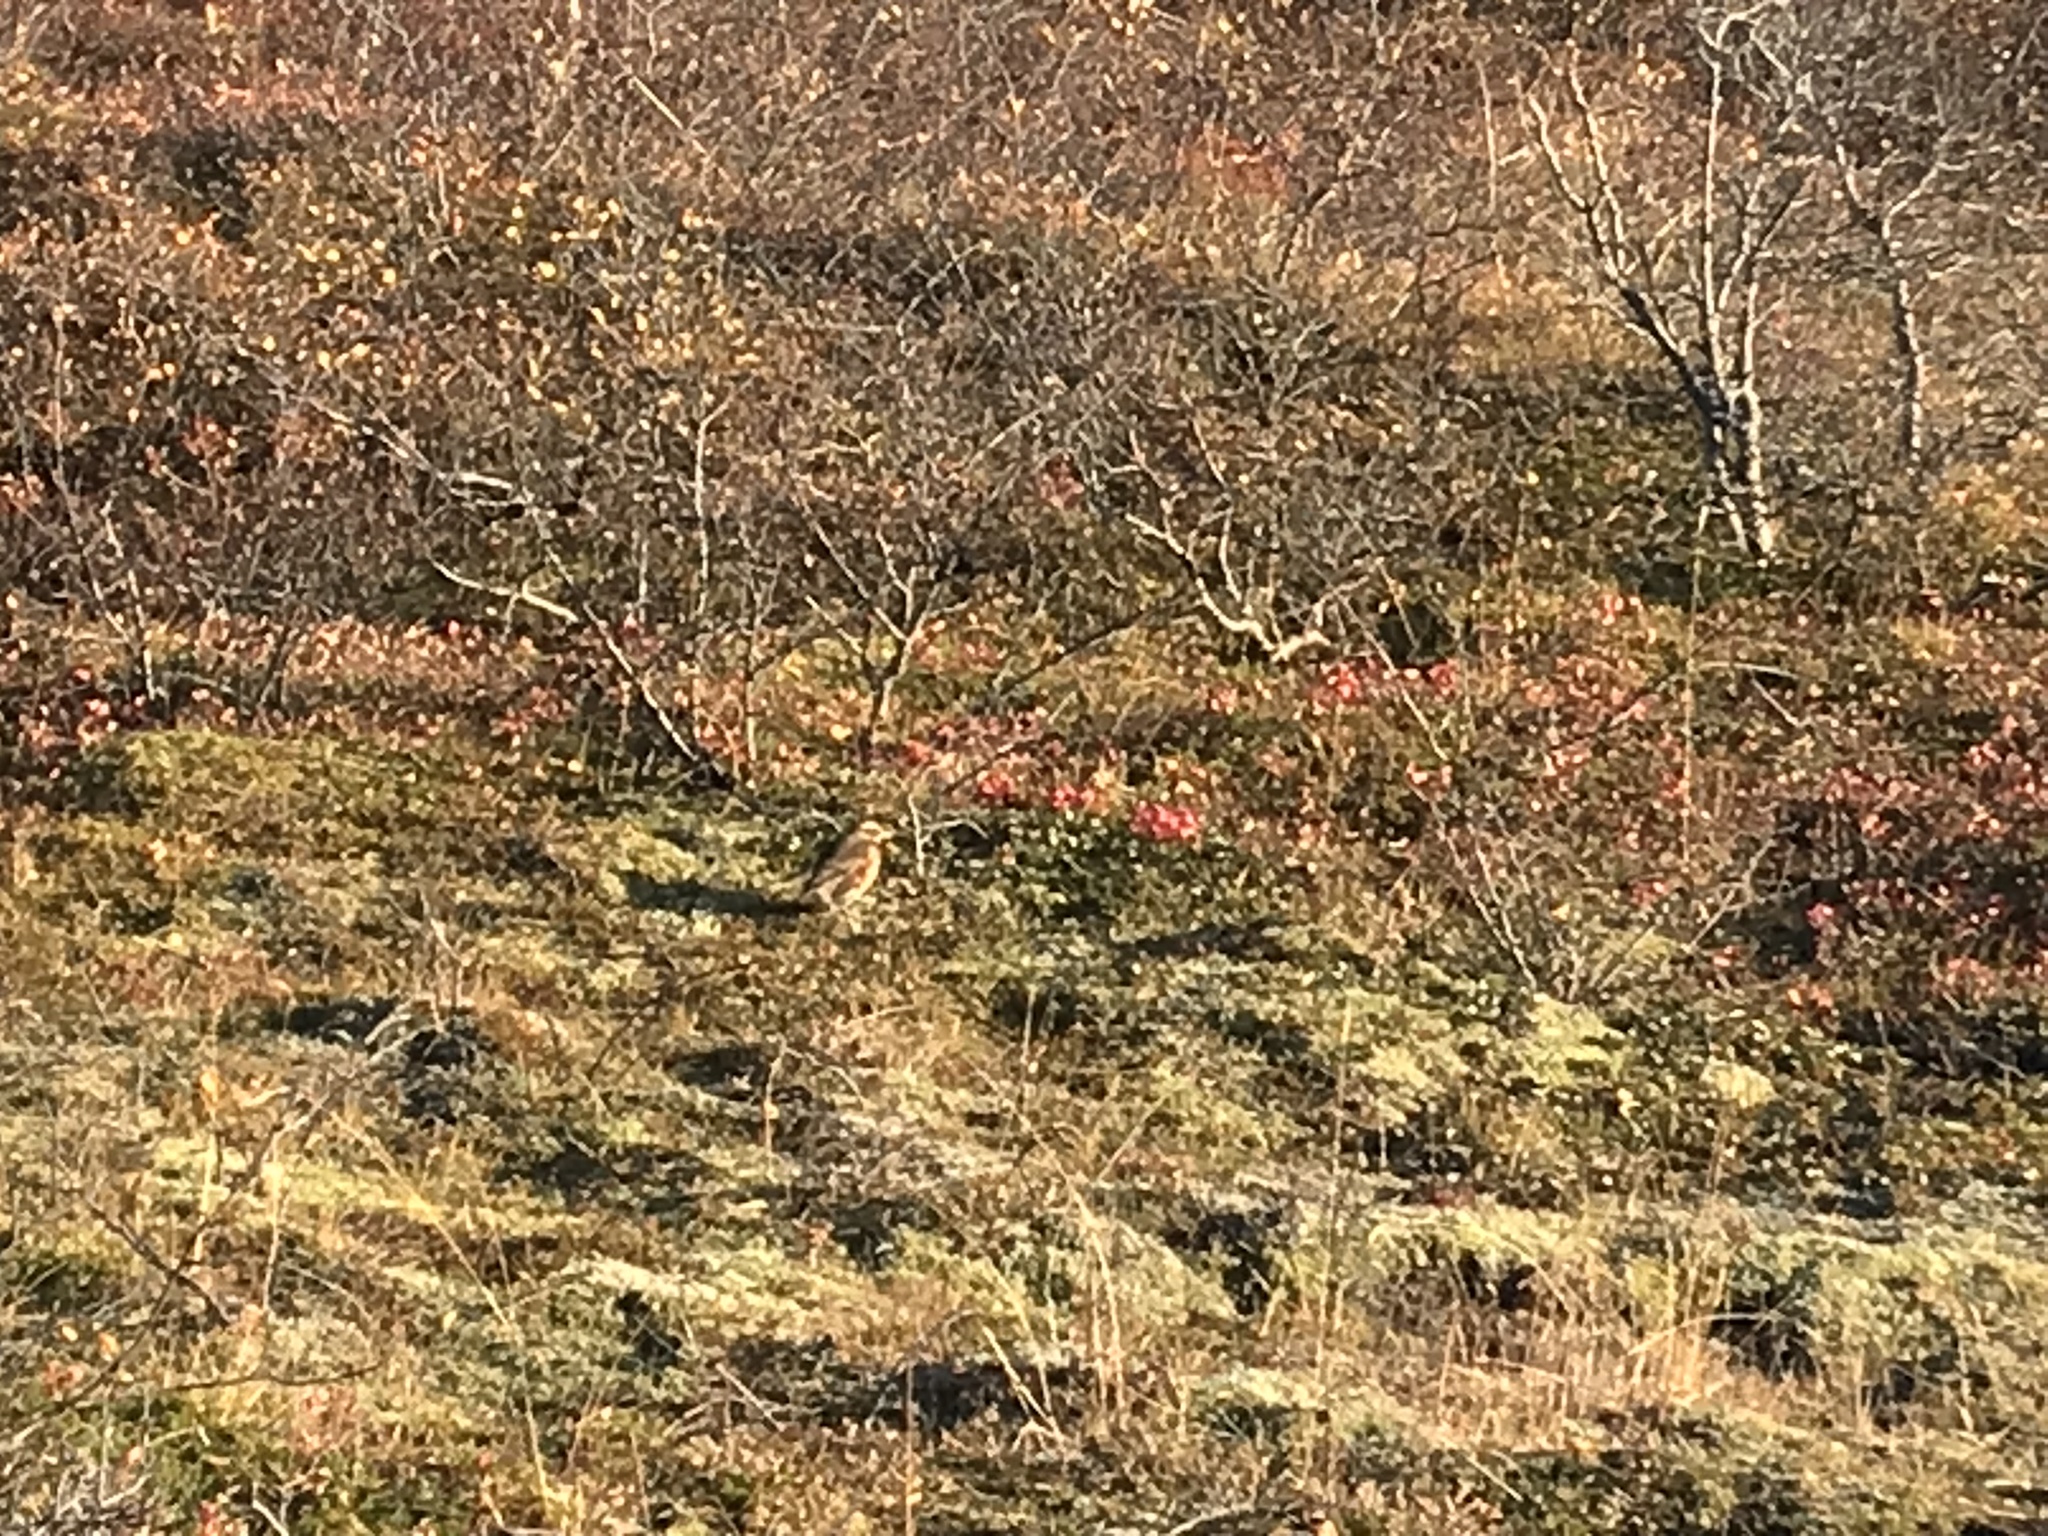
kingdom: Animalia
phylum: Chordata
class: Aves
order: Passeriformes
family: Turdidae
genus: Turdus
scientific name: Turdus iliacus
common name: Redwing
